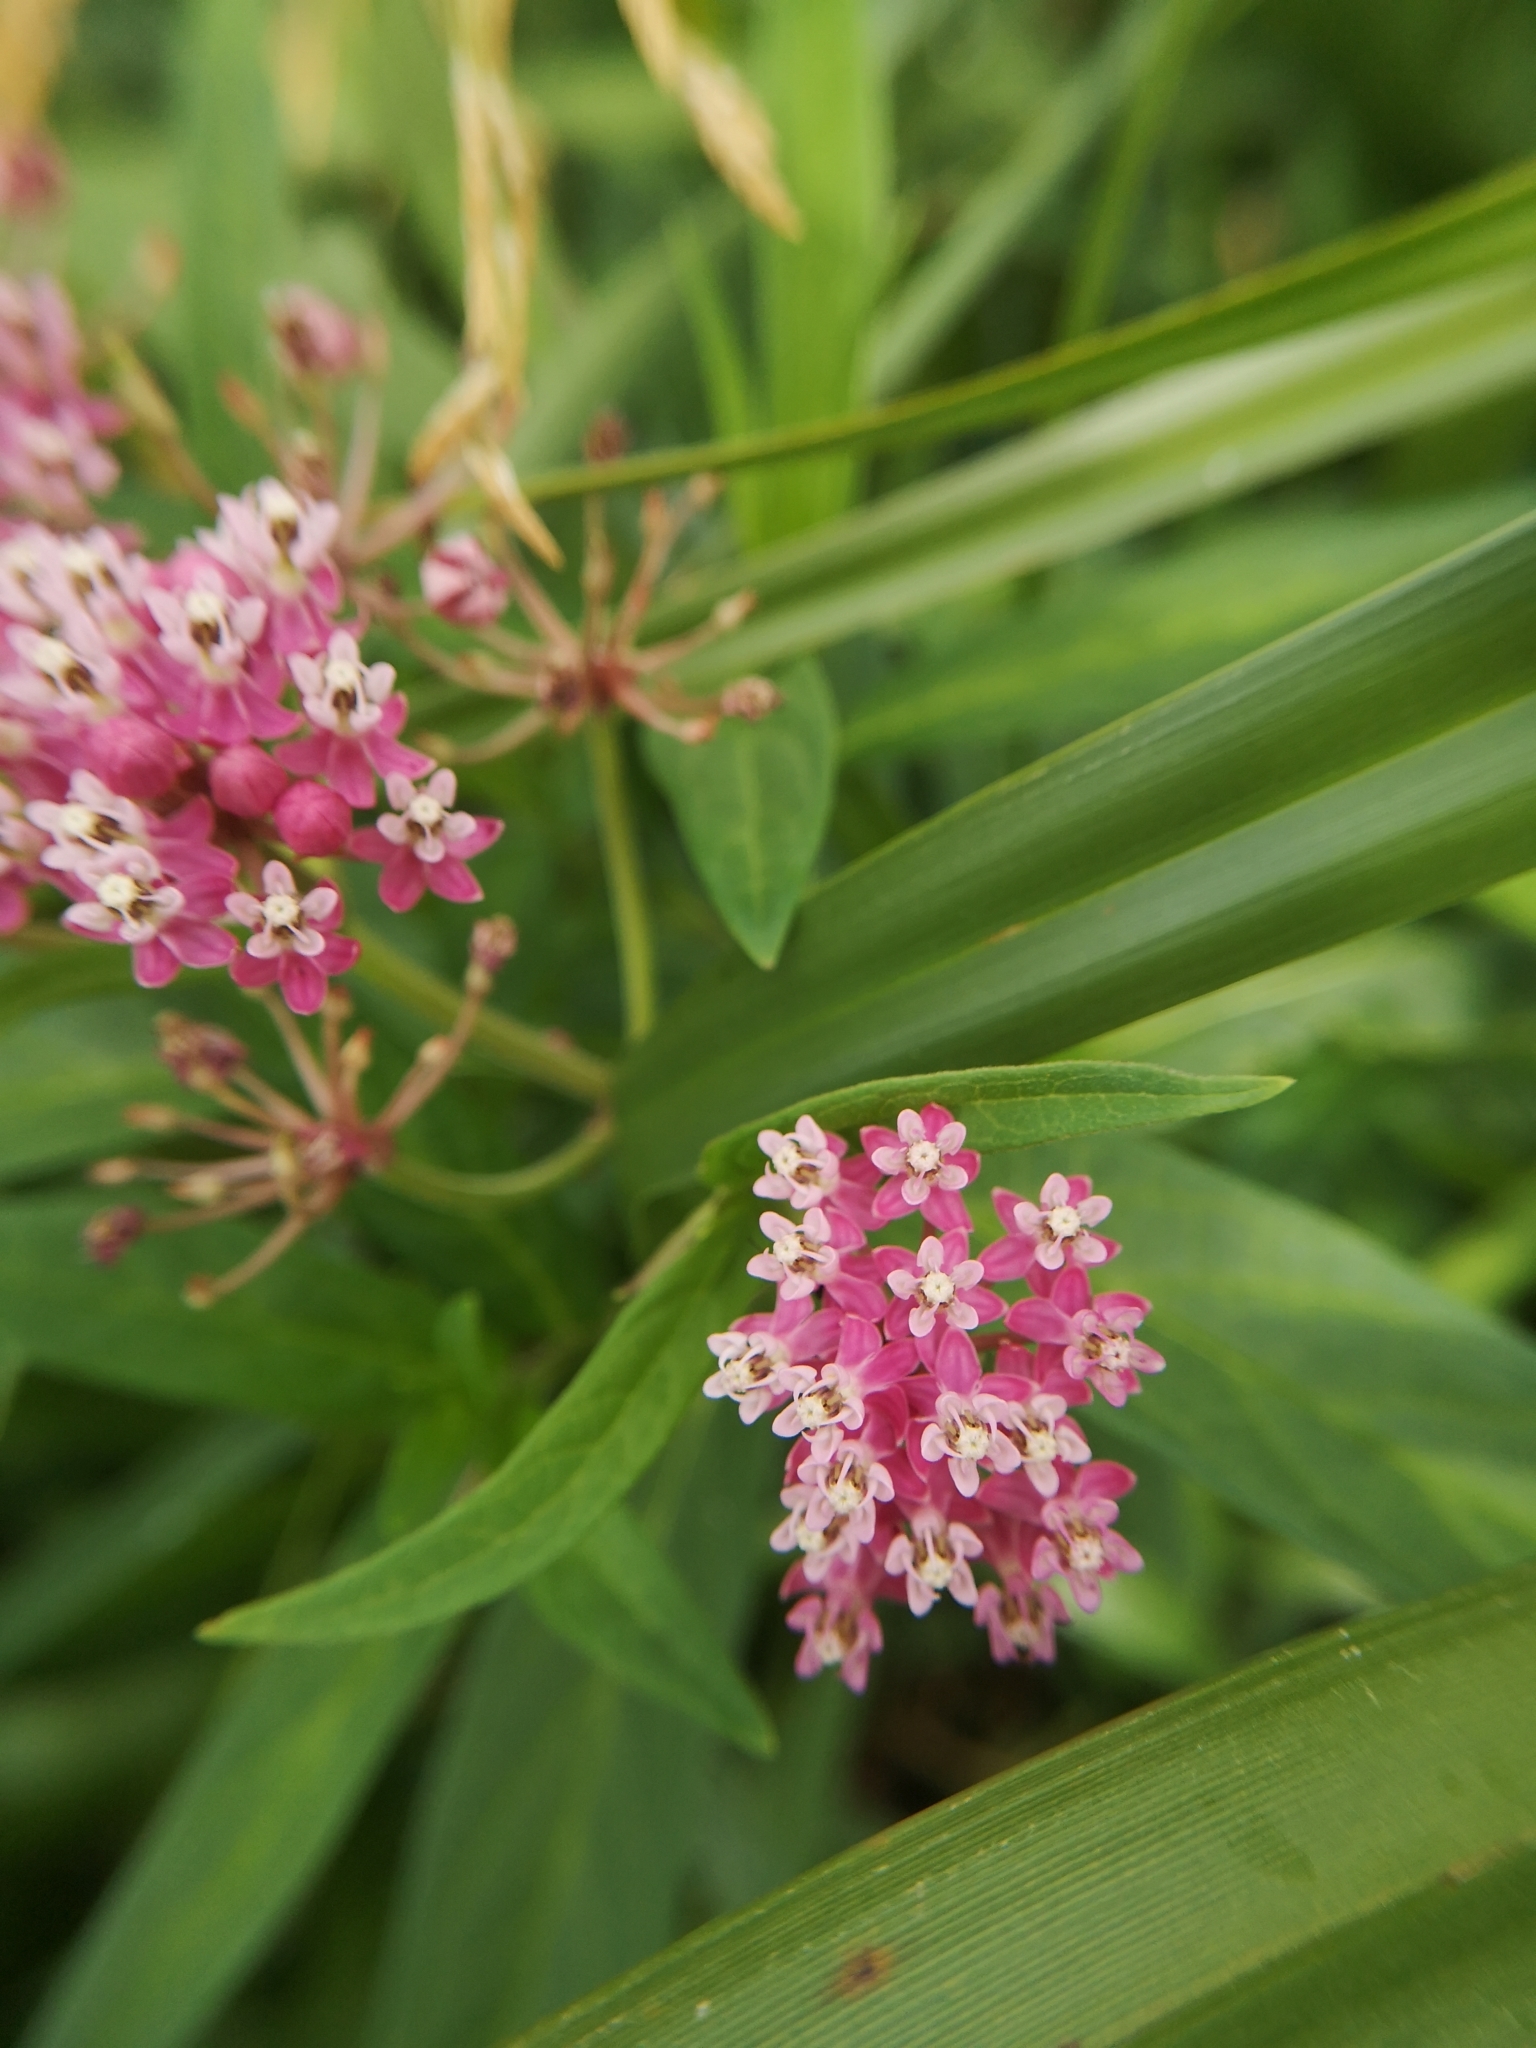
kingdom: Plantae
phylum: Tracheophyta
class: Magnoliopsida
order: Gentianales
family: Apocynaceae
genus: Asclepias
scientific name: Asclepias incarnata
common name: Swamp milkweed
